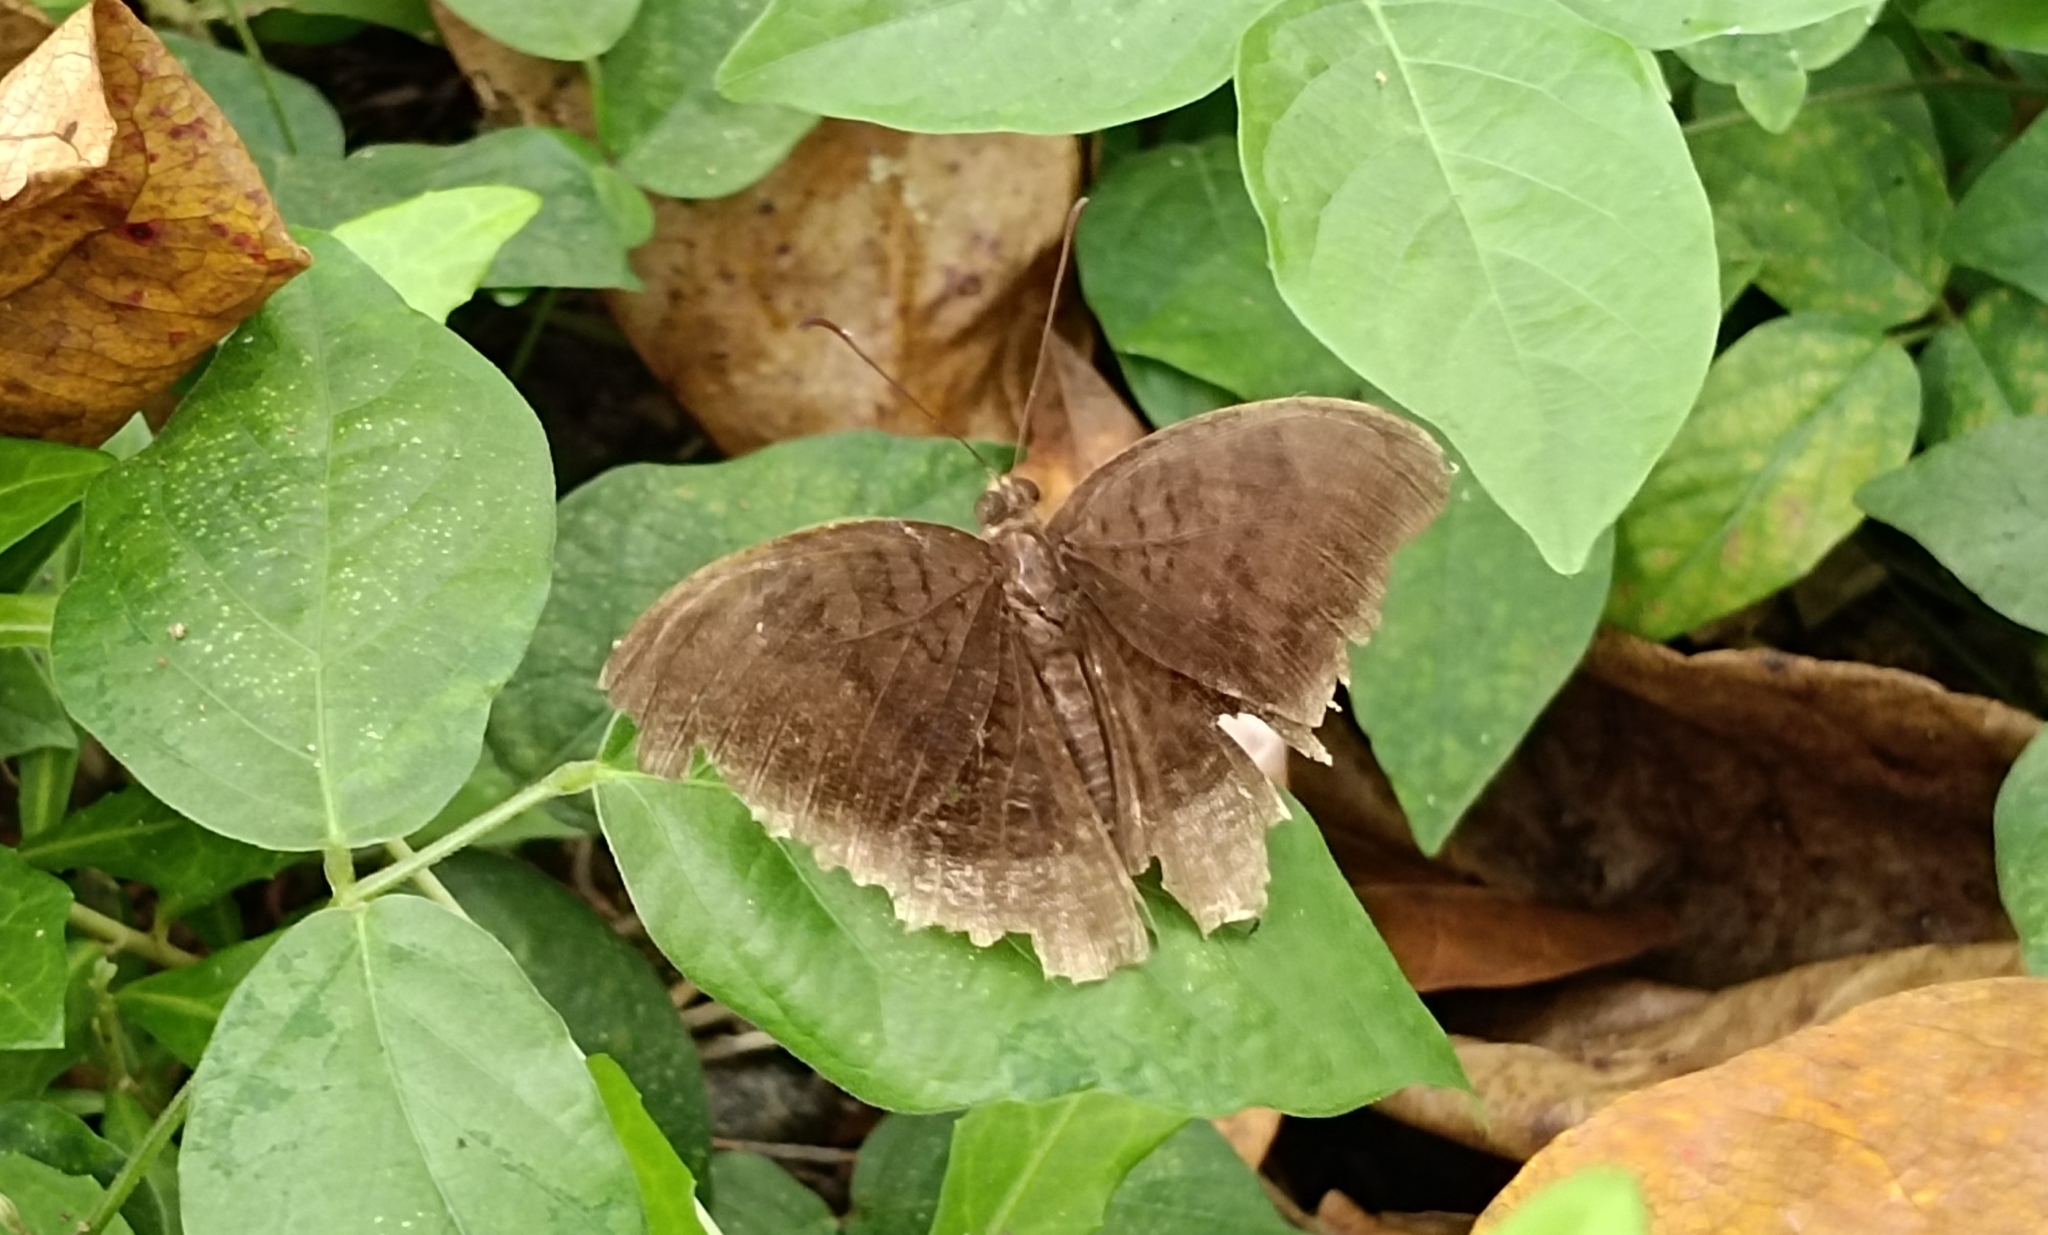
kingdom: Animalia
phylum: Arthropoda
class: Insecta
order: Lepidoptera
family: Nymphalidae
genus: Tanaecia
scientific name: Tanaecia lepidea
